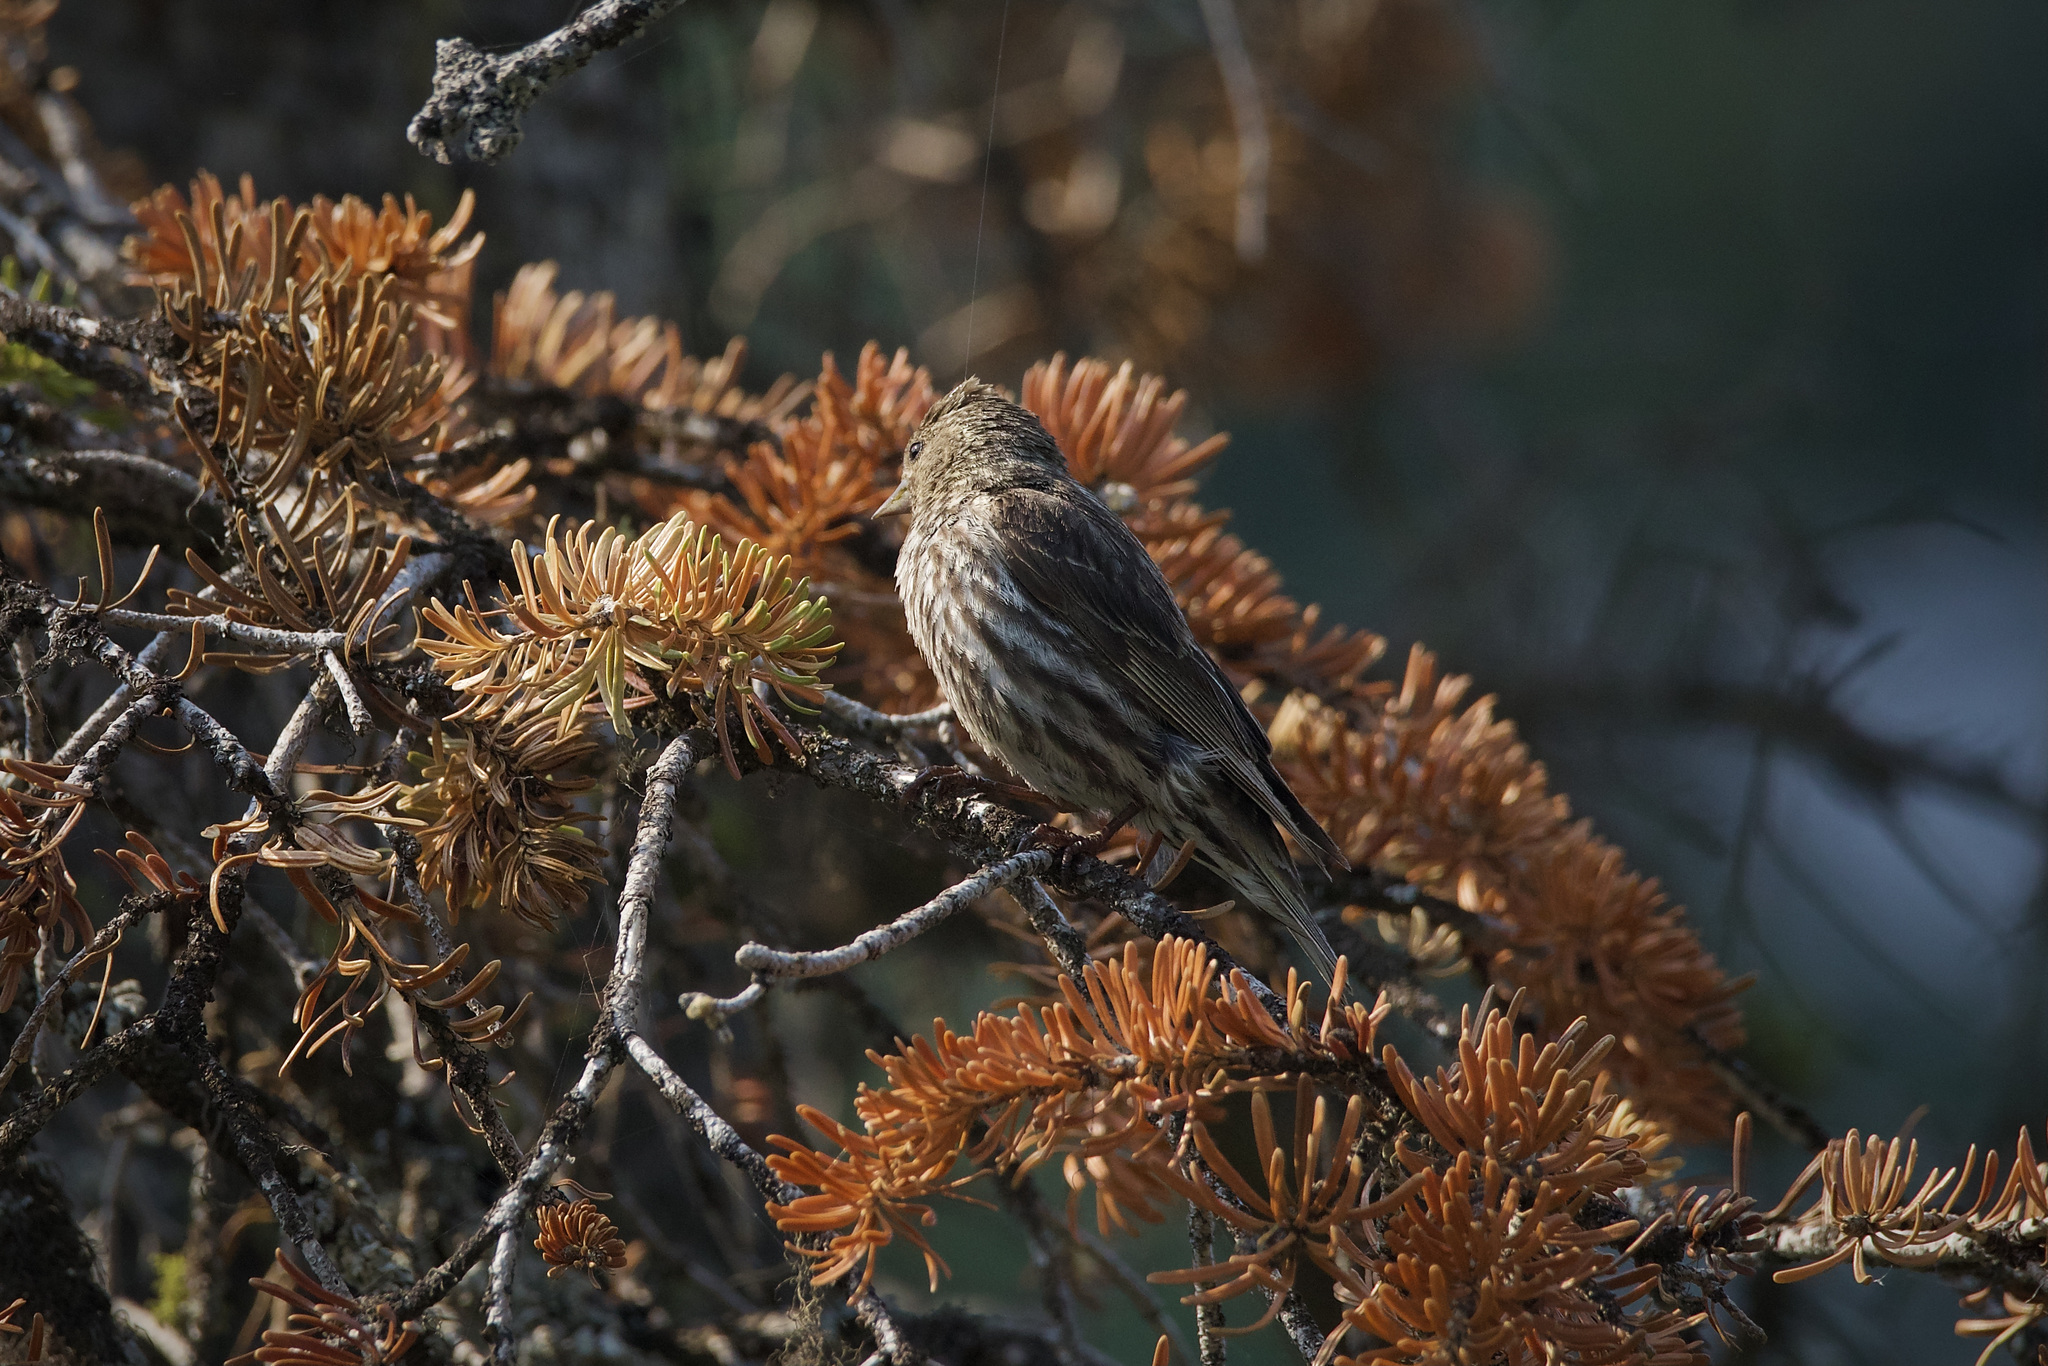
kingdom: Animalia
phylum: Chordata
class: Aves
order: Passeriformes
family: Fringillidae
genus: Spinus
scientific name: Spinus pinus
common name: Pine siskin
